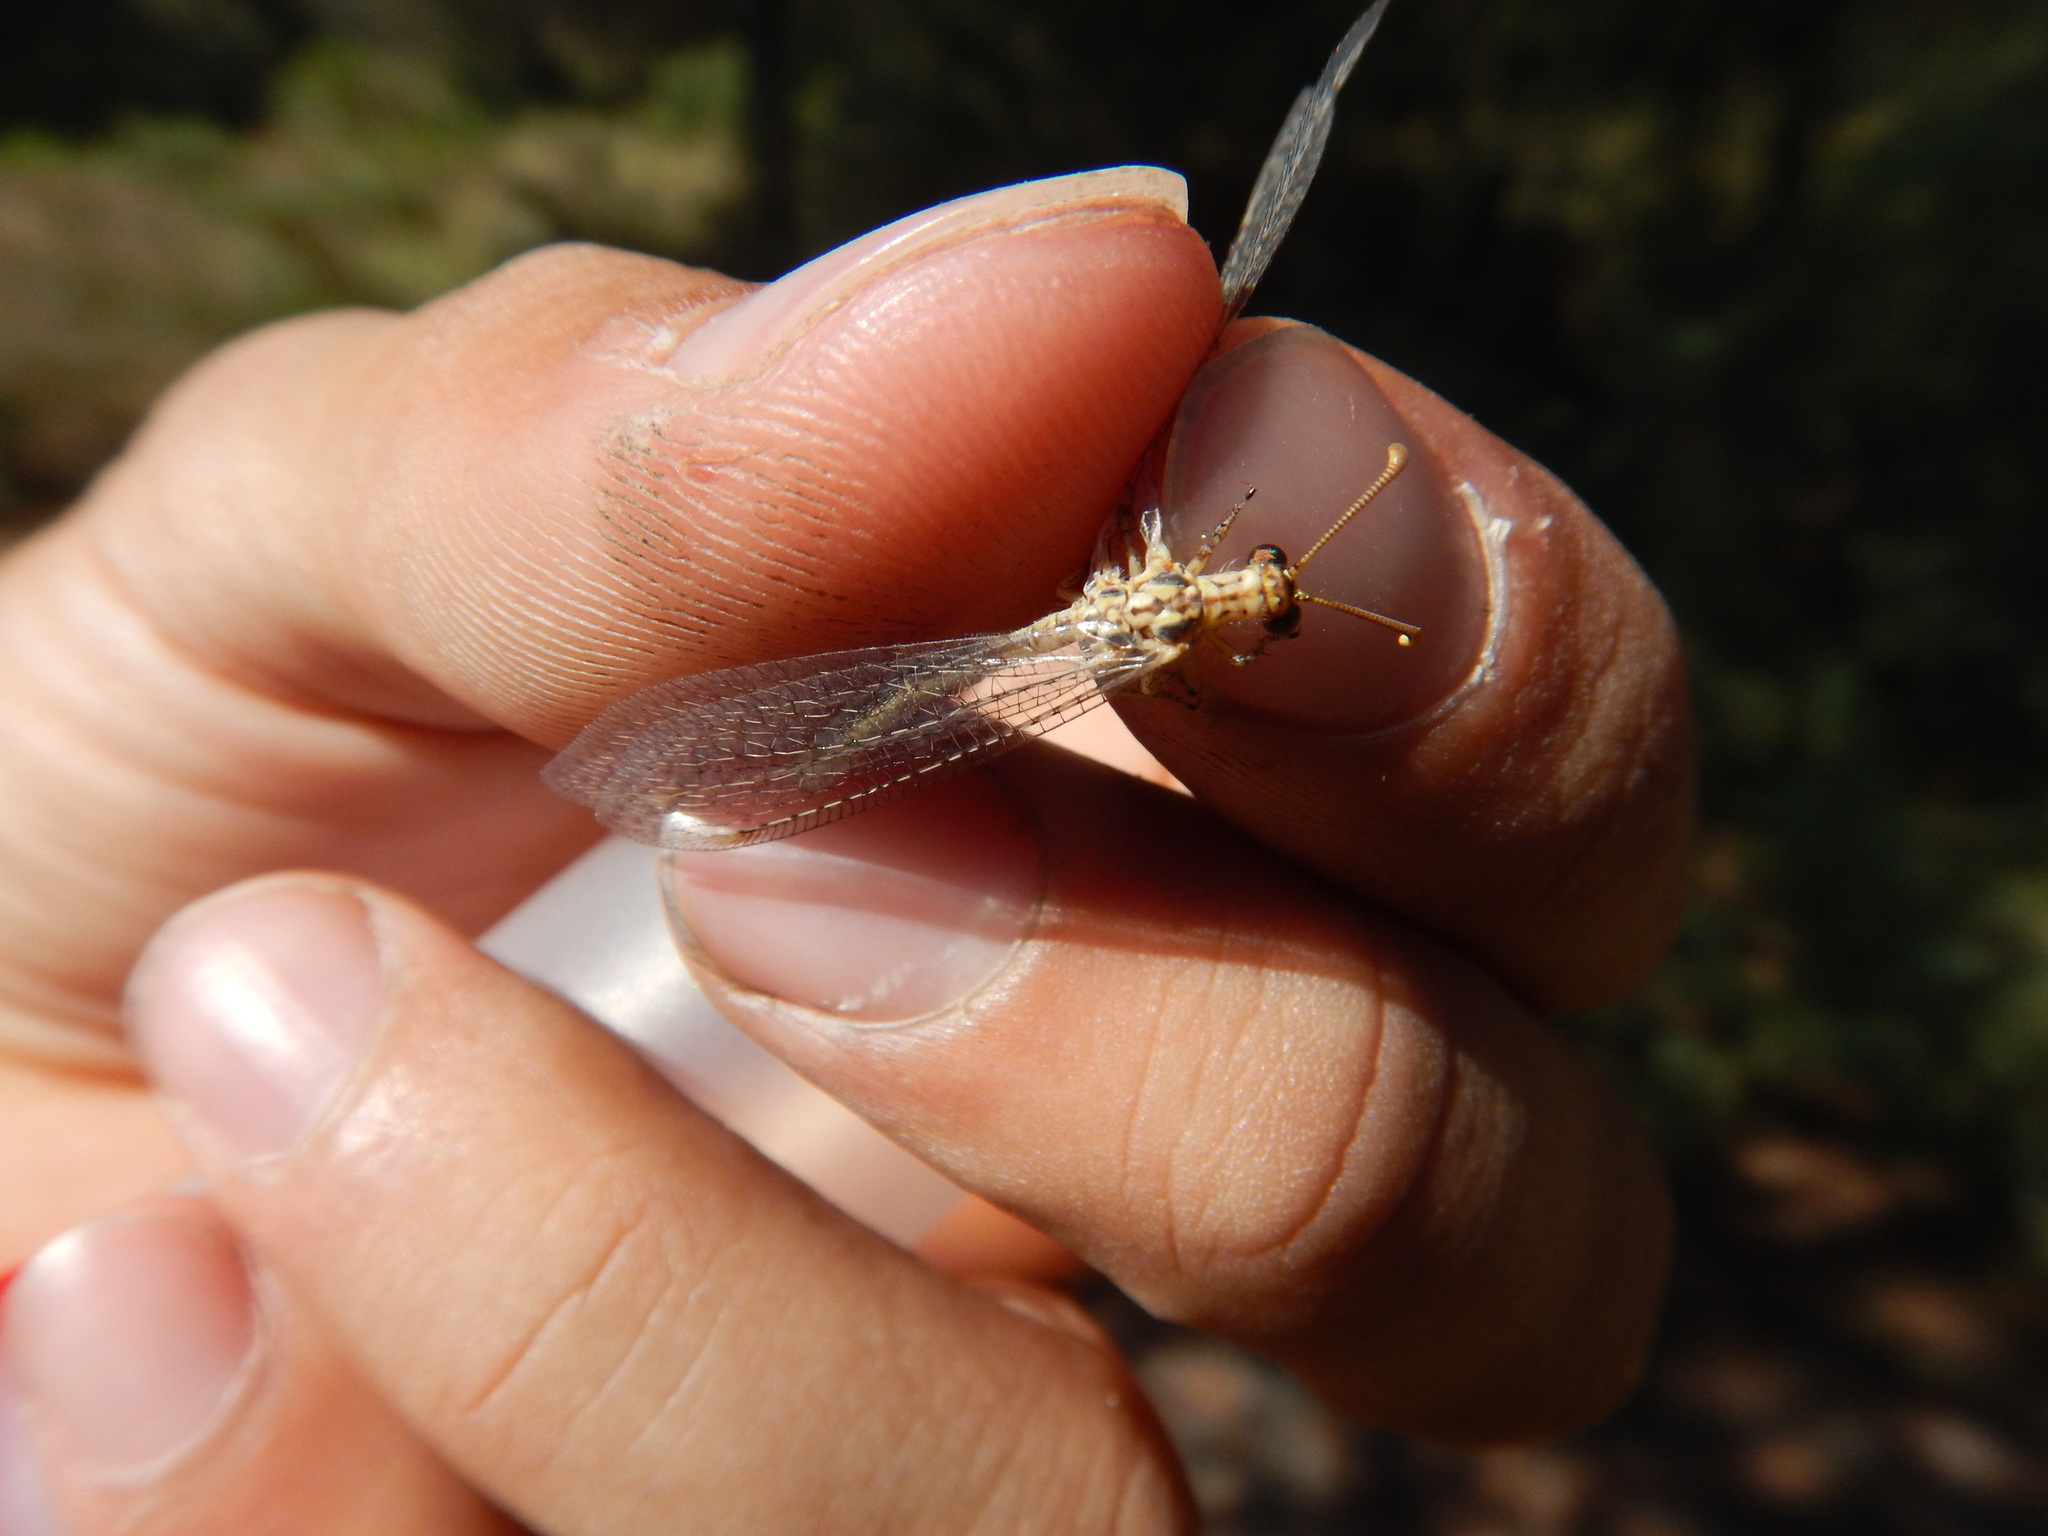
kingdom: Animalia
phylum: Arthropoda
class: Insecta
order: Neuroptera
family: Myrmeleontidae
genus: Macronemurus
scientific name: Macronemurus appendiculatus
